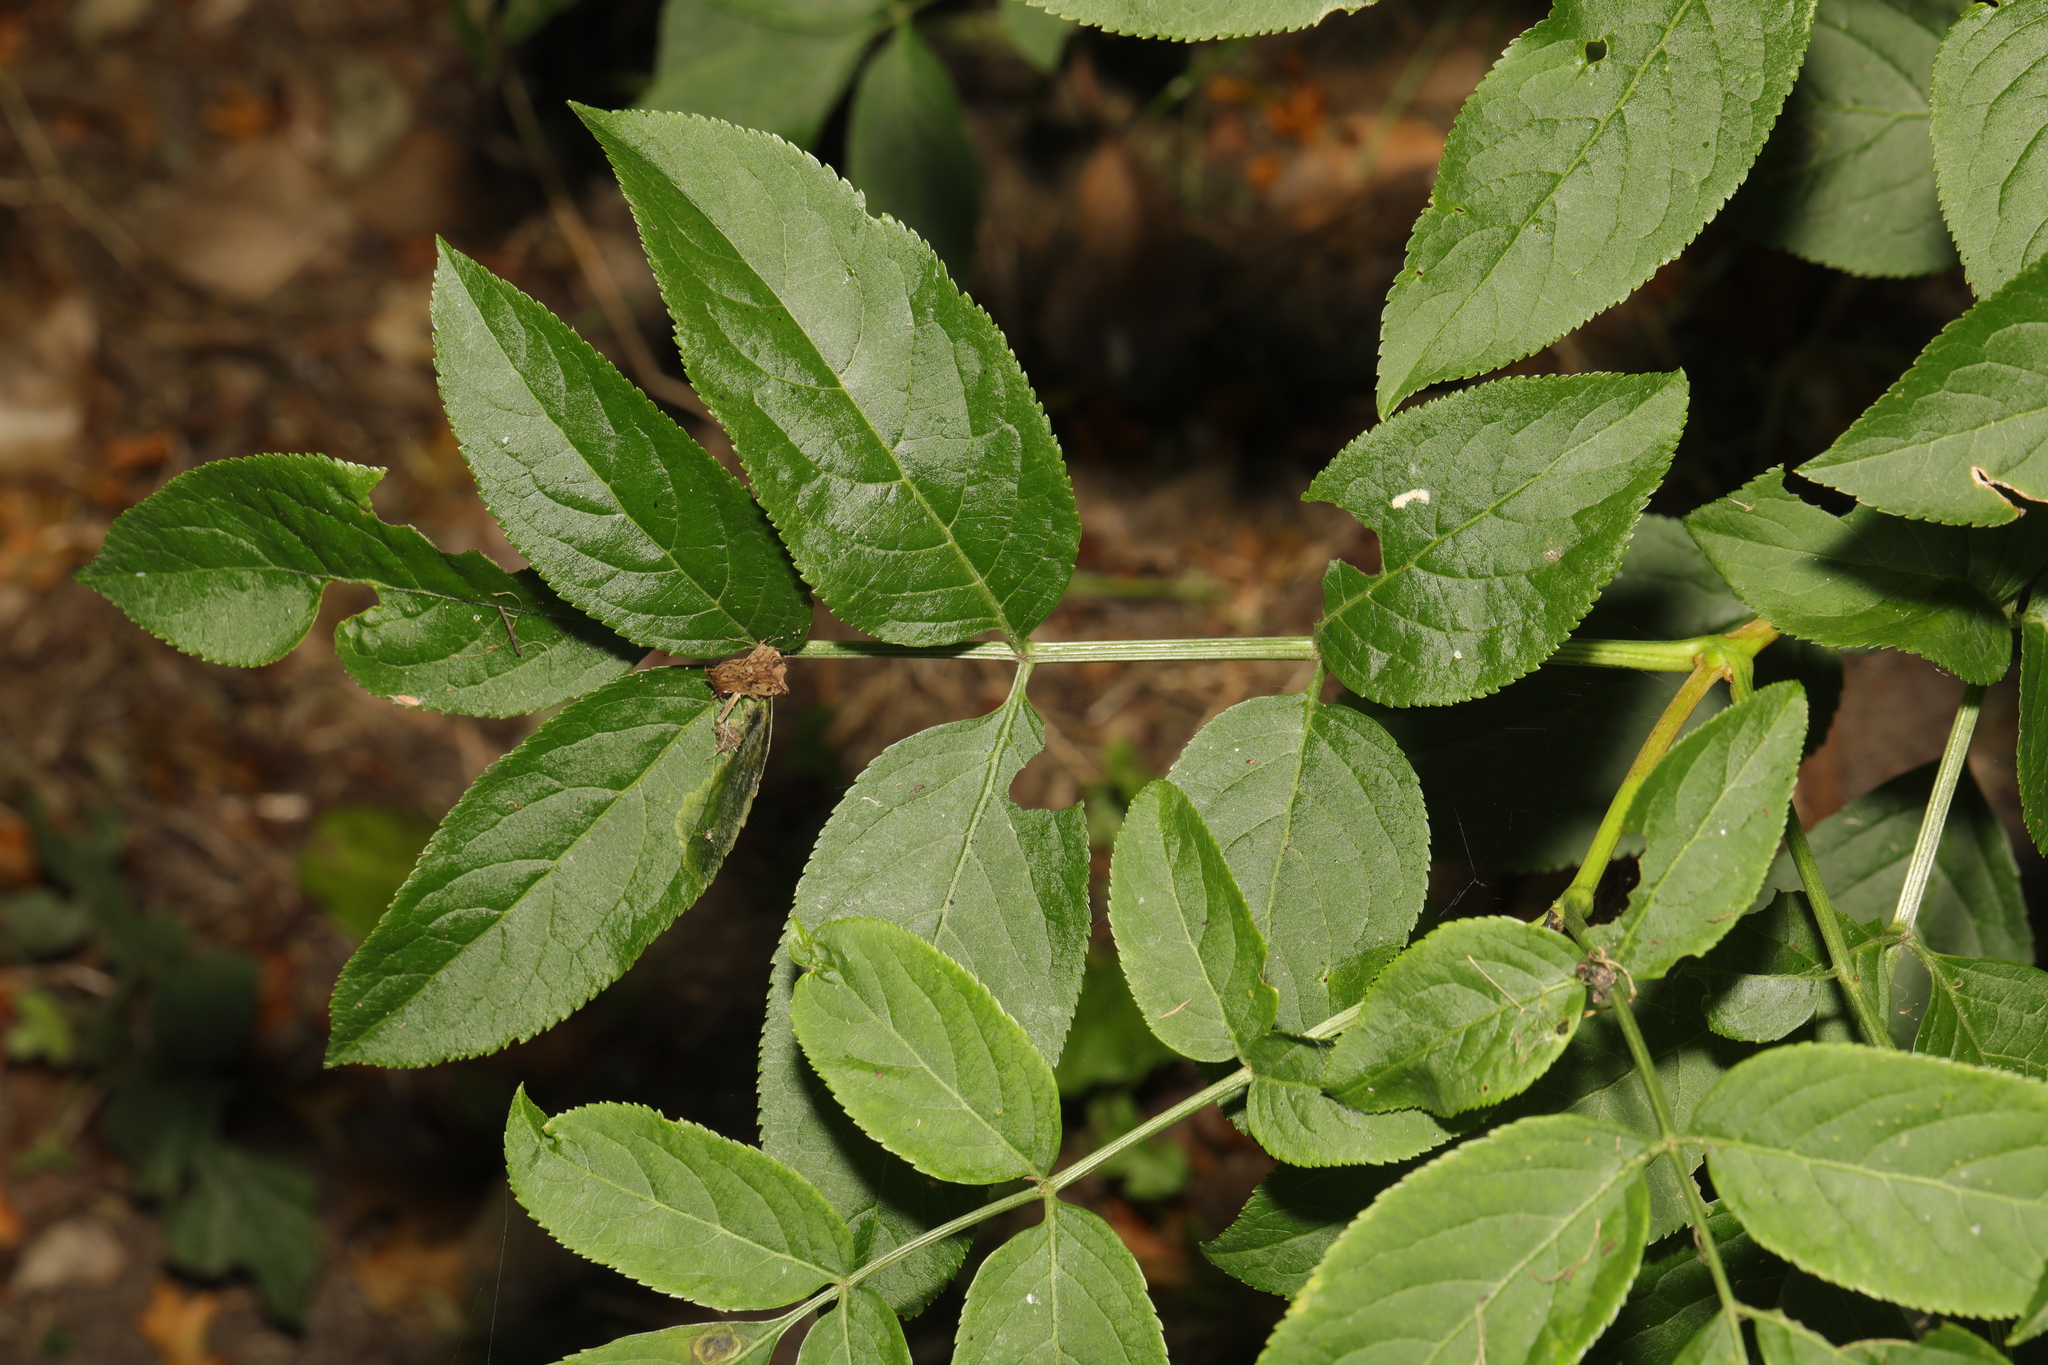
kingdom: Plantae
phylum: Tracheophyta
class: Magnoliopsida
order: Dipsacales
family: Viburnaceae
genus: Sambucus
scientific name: Sambucus nigra
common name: Elder
